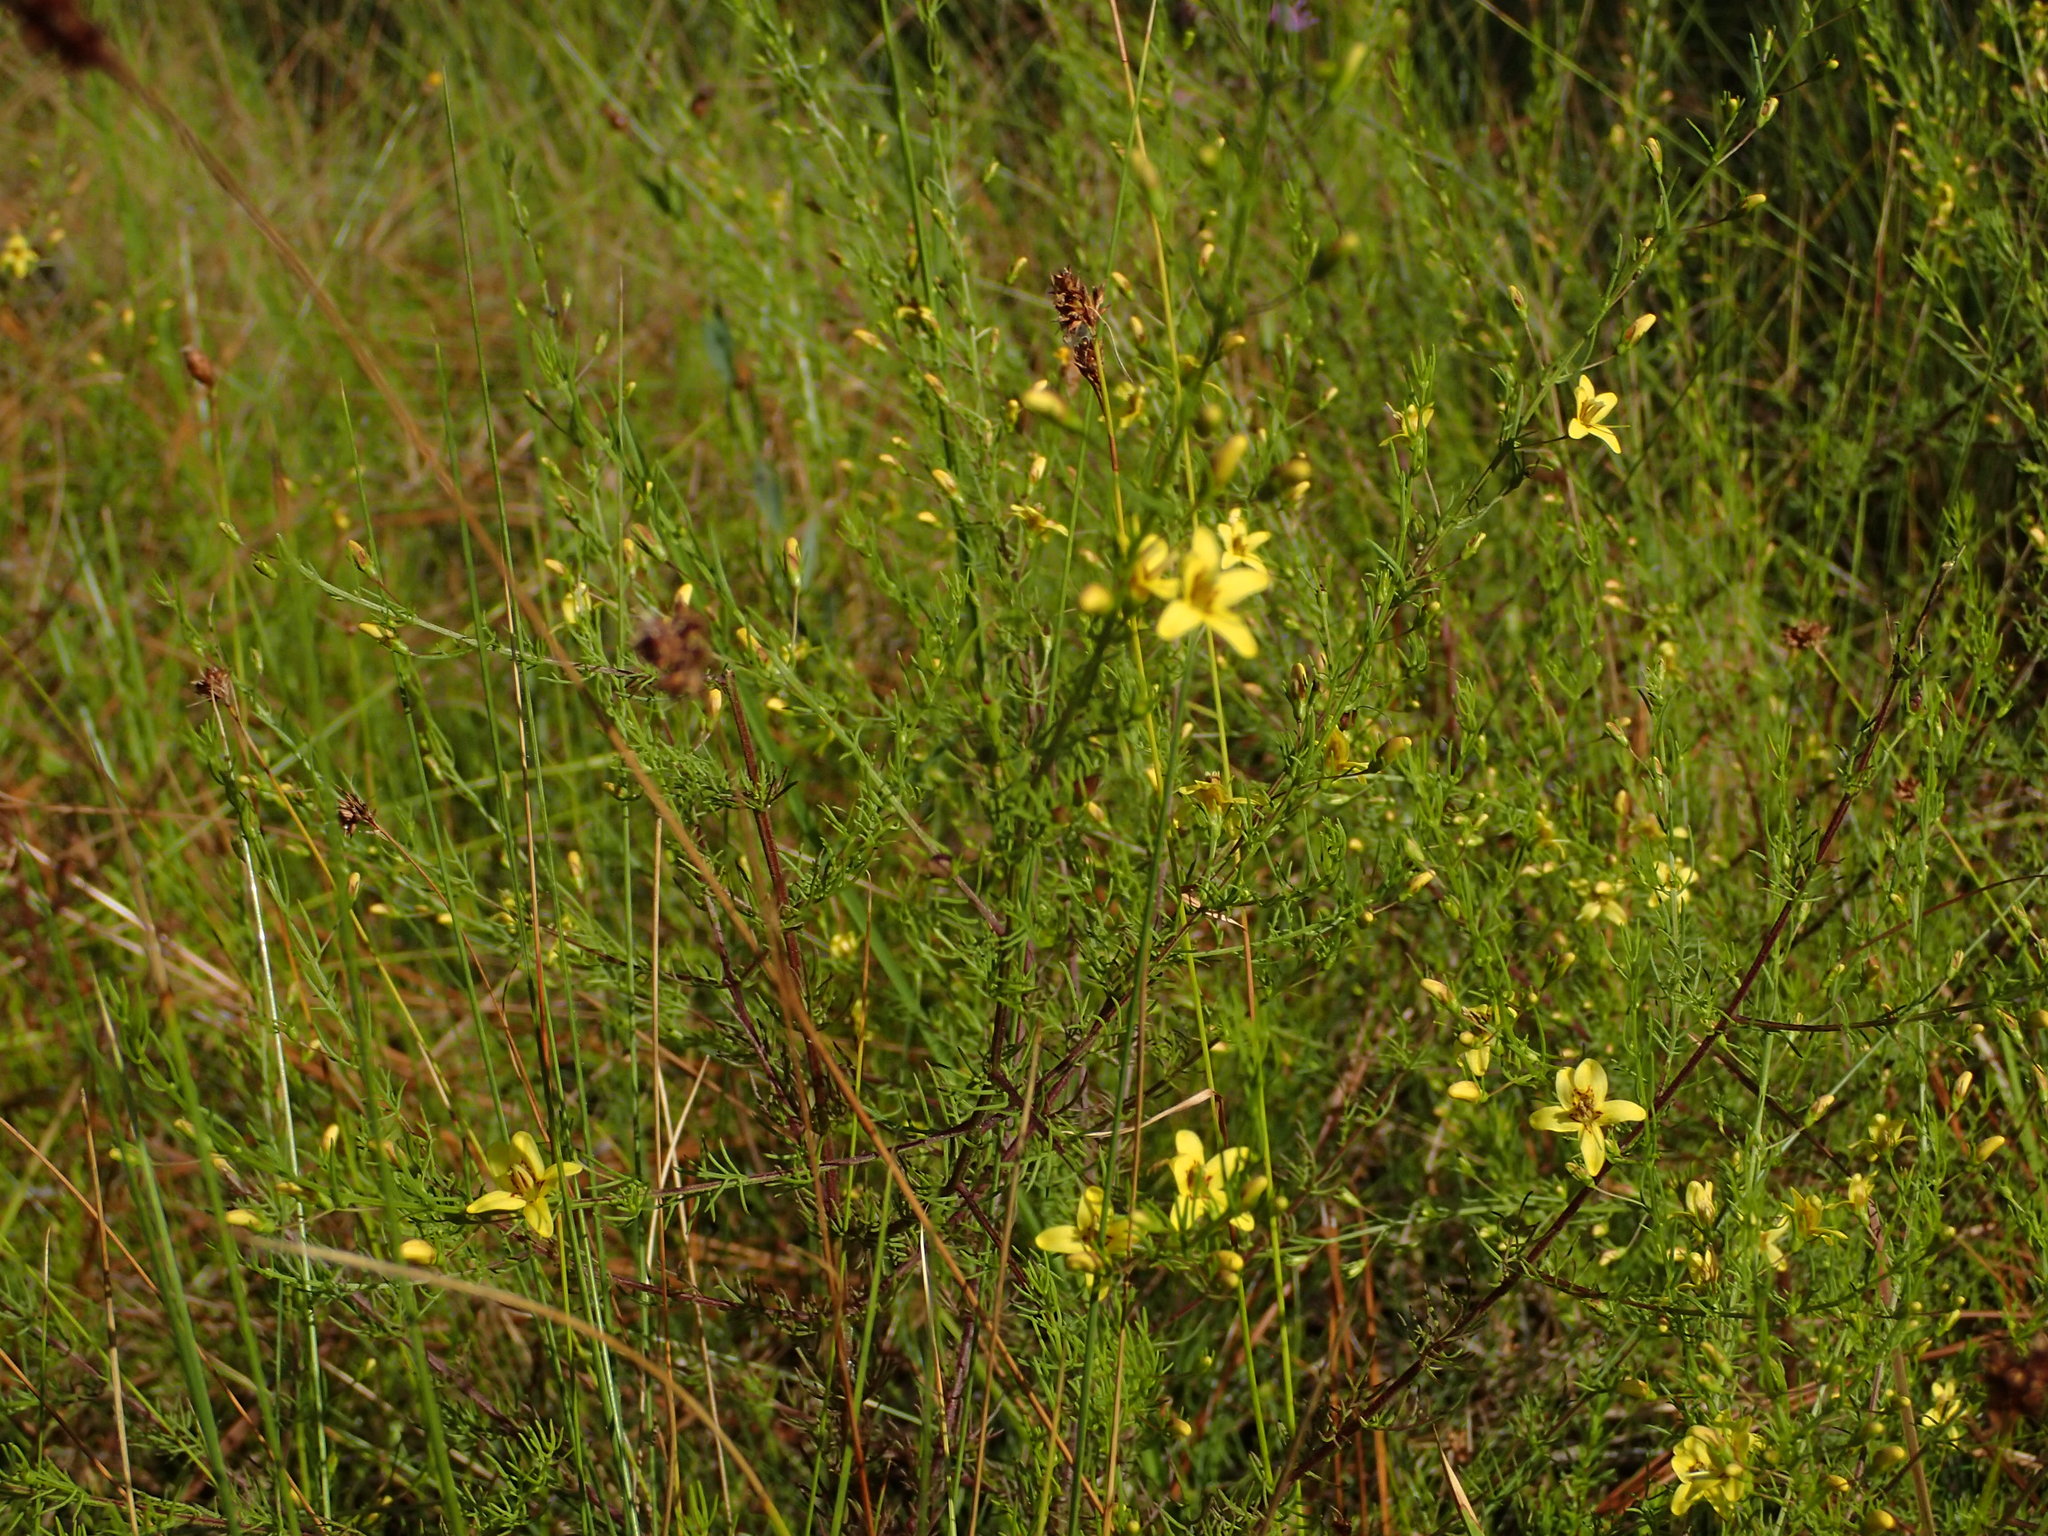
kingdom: Plantae
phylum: Tracheophyta
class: Magnoliopsida
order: Lamiales
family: Orobanchaceae
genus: Seymeria
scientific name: Seymeria cassioides
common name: Yaupon black-senna
